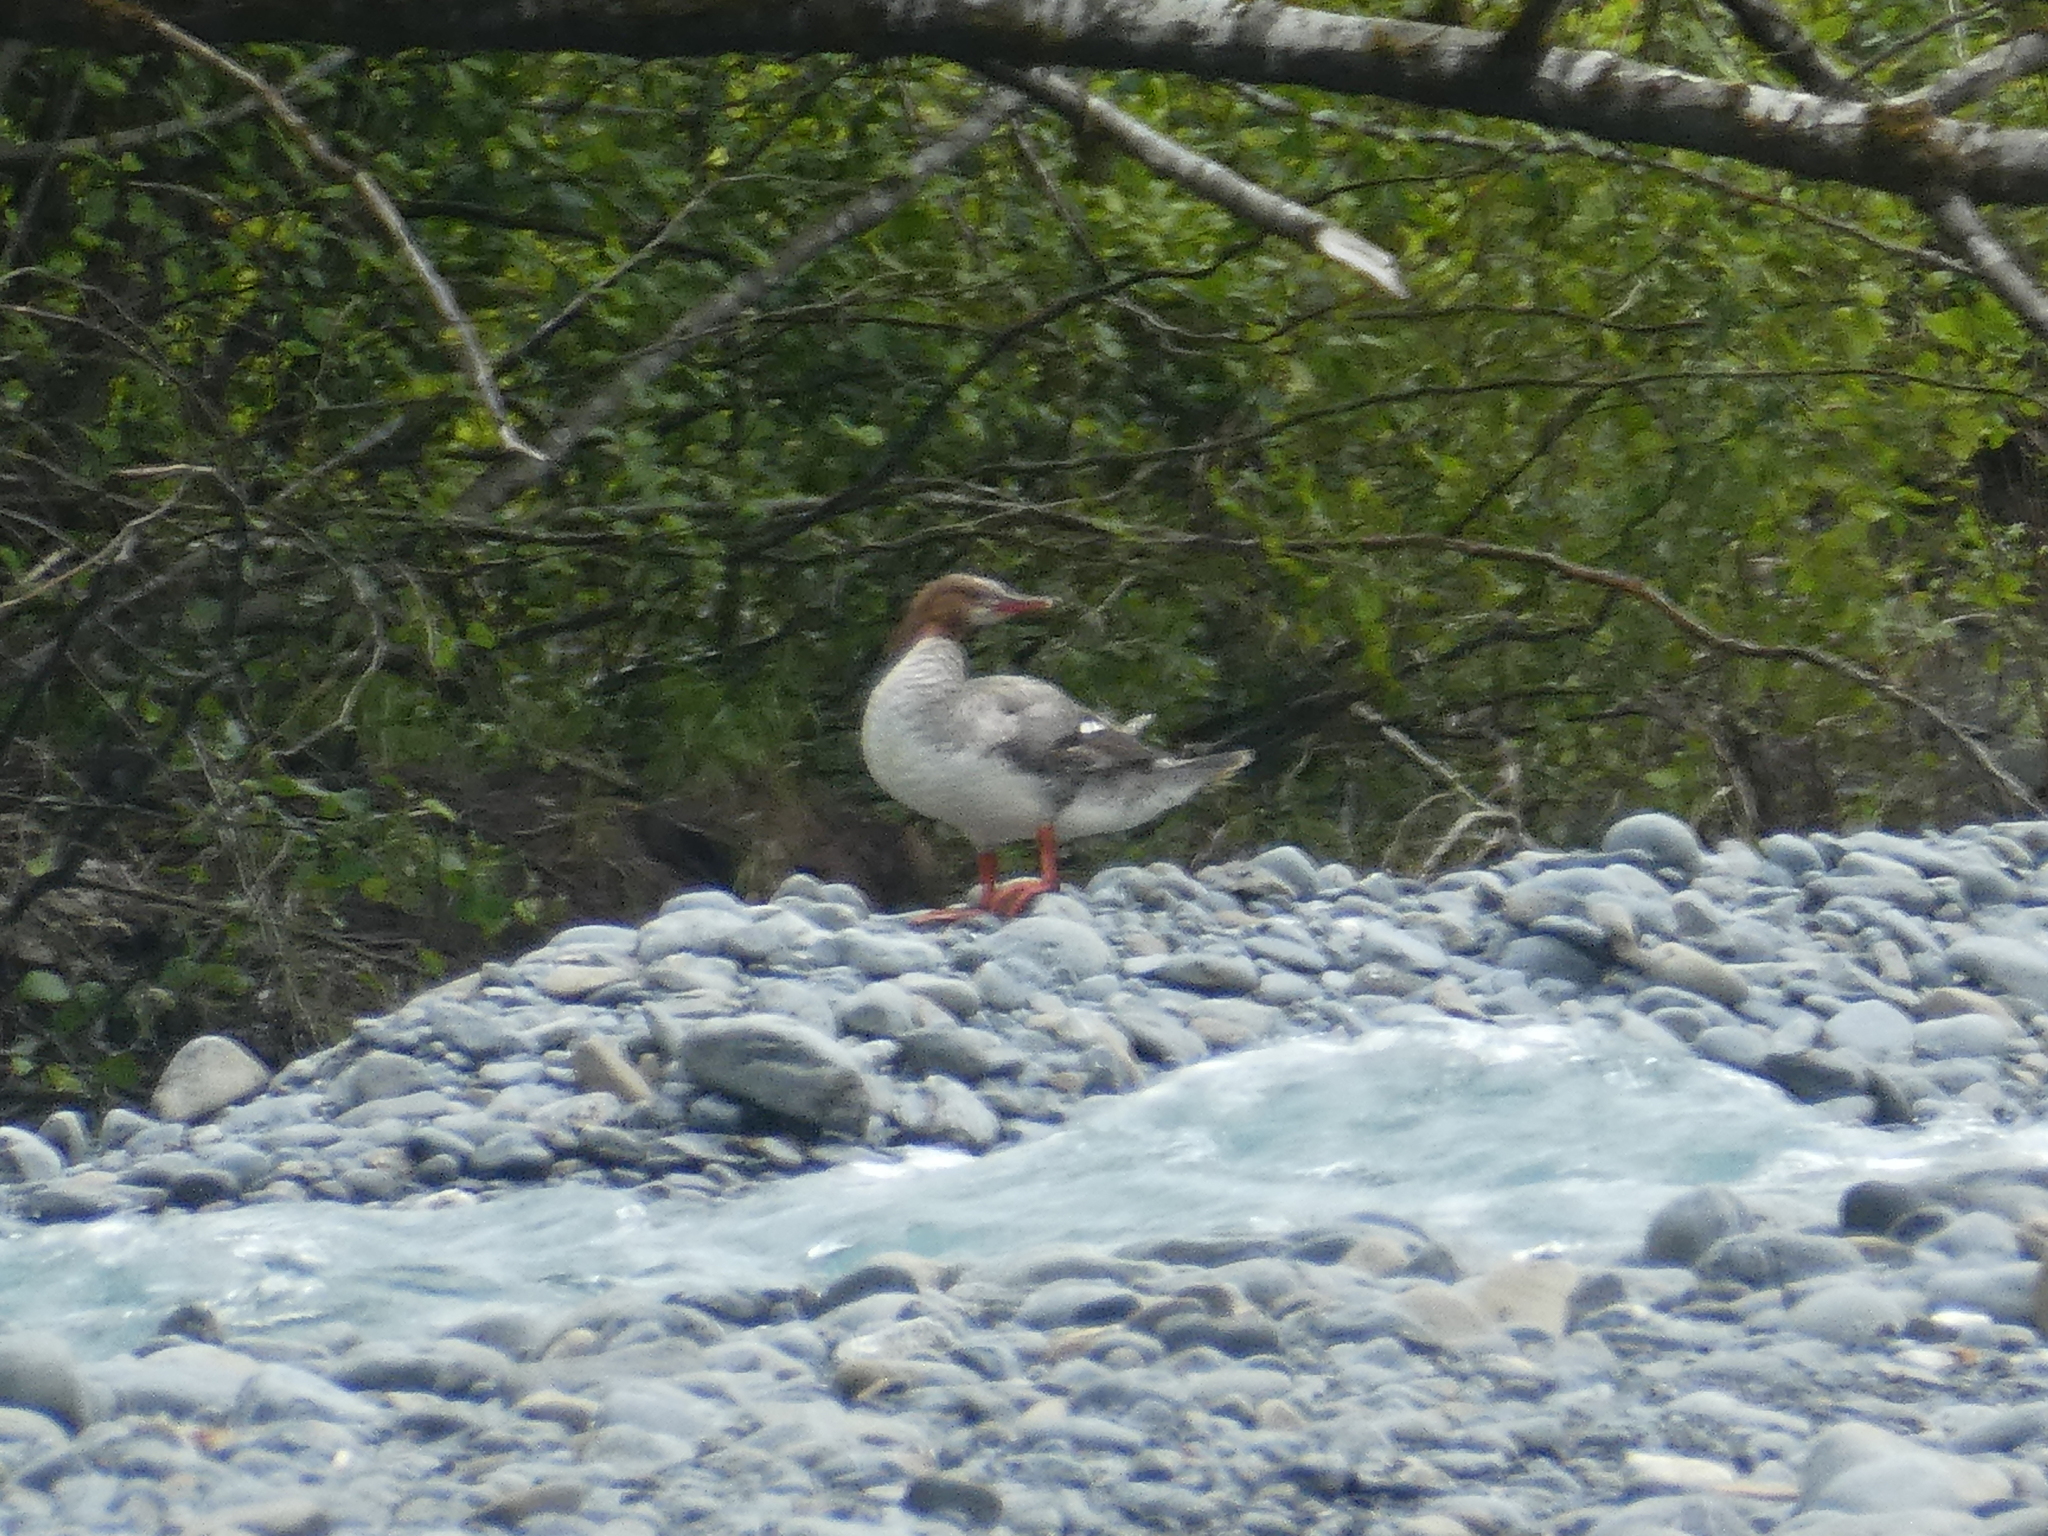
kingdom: Animalia
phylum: Chordata
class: Aves
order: Anseriformes
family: Anatidae
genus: Mergus
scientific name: Mergus merganser
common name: Common merganser
